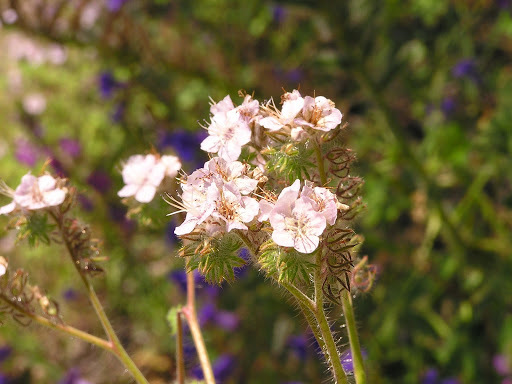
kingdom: Plantae
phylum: Tracheophyta
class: Magnoliopsida
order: Boraginales
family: Hydrophyllaceae
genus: Phacelia
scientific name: Phacelia cicutaria
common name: Caterpillar phacelia
